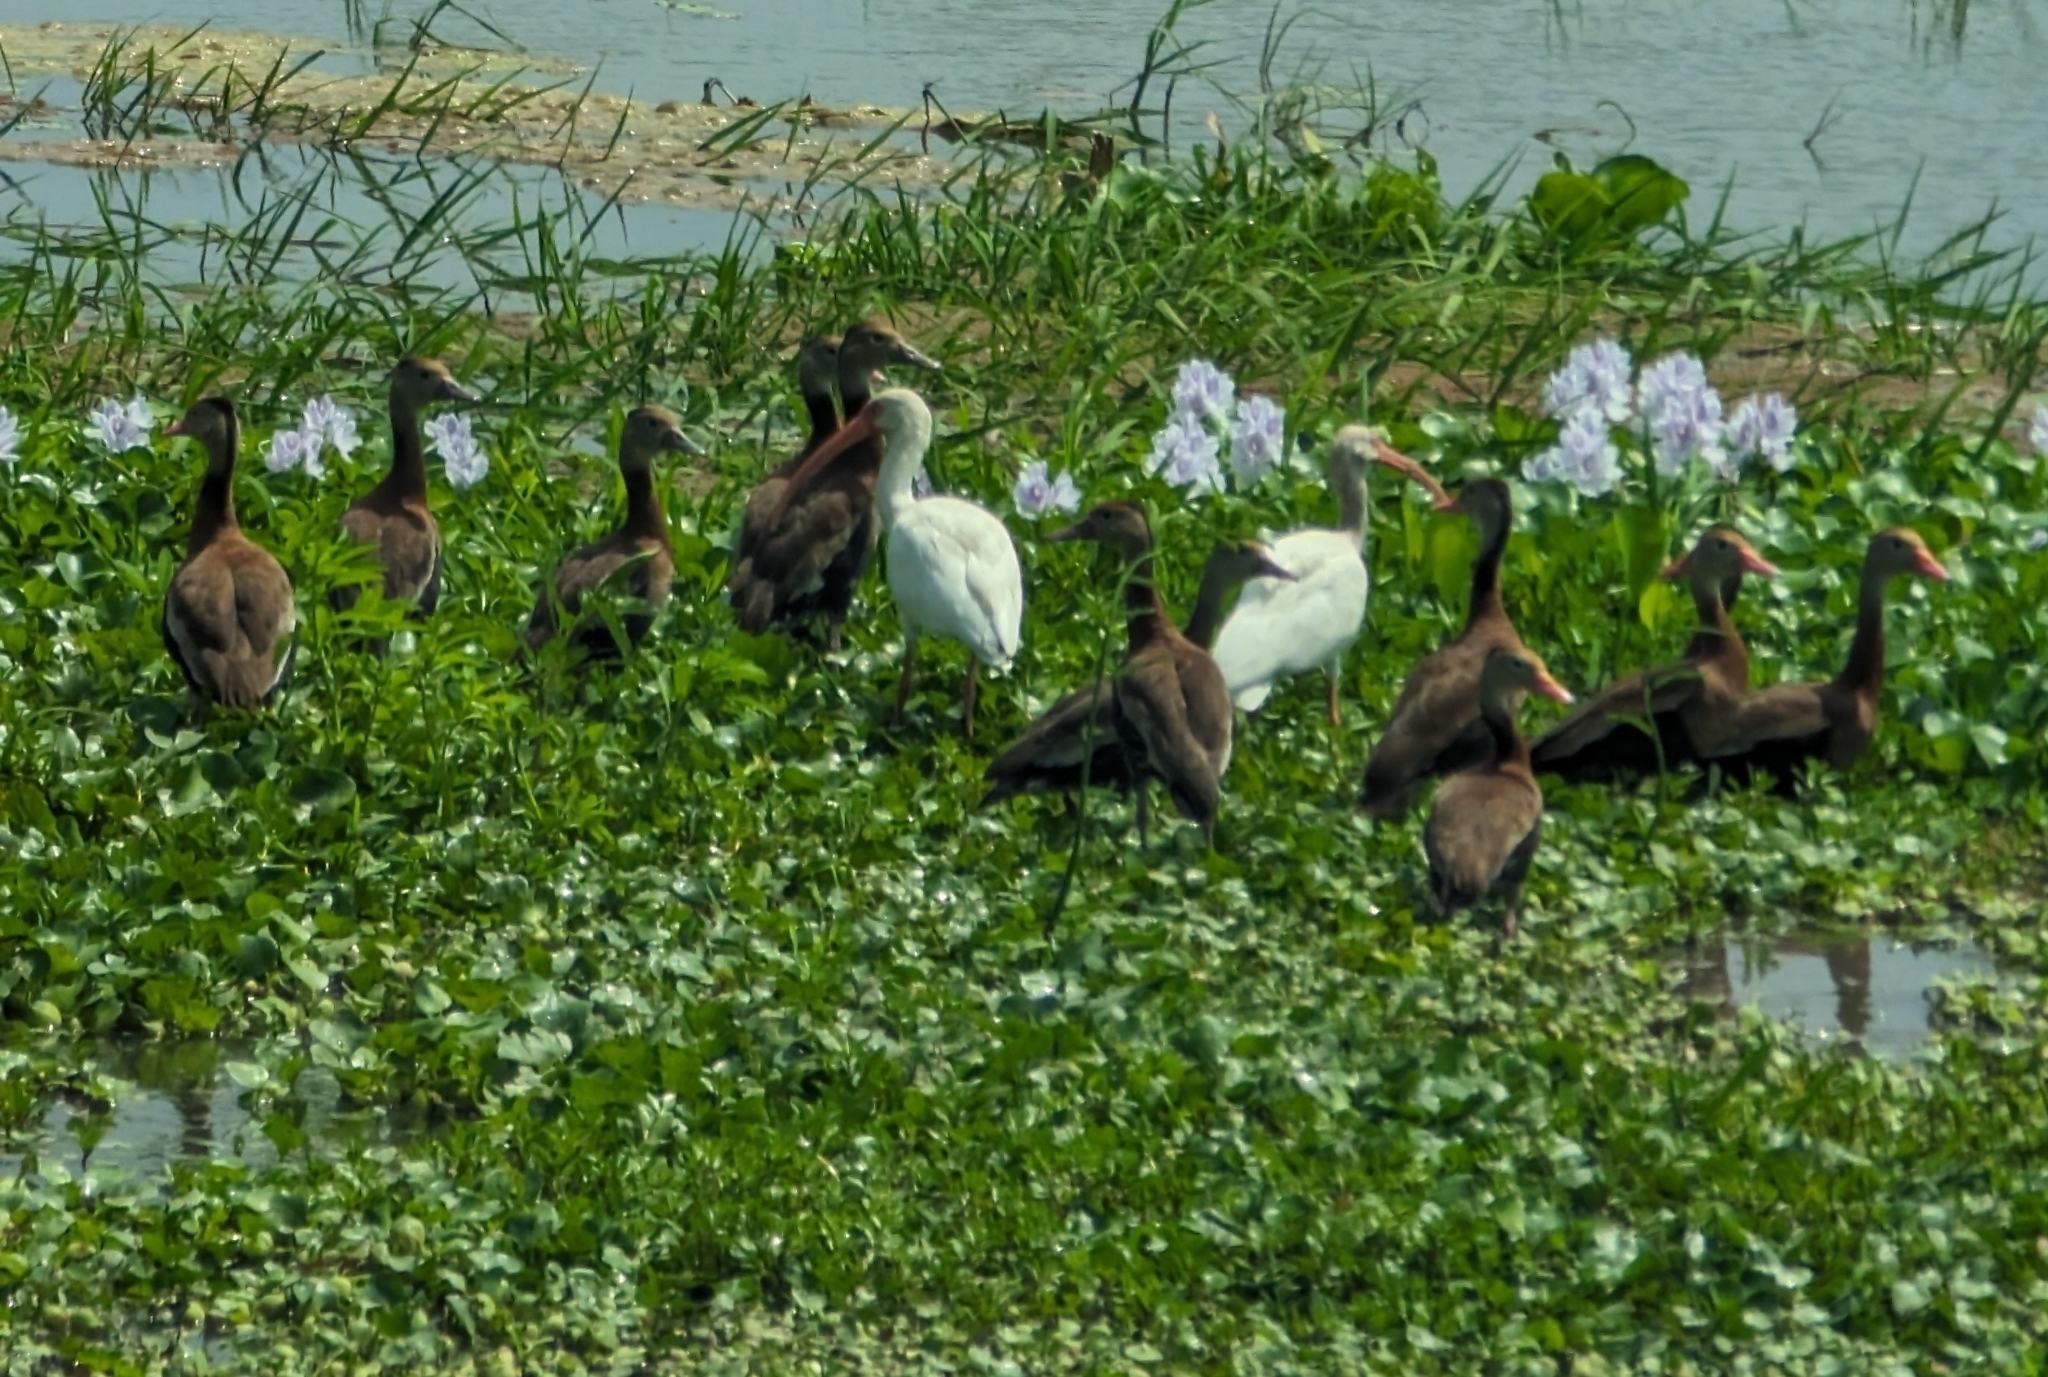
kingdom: Animalia
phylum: Chordata
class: Aves
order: Anseriformes
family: Anatidae
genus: Dendrocygna
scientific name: Dendrocygna autumnalis
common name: Black-bellied whistling duck
